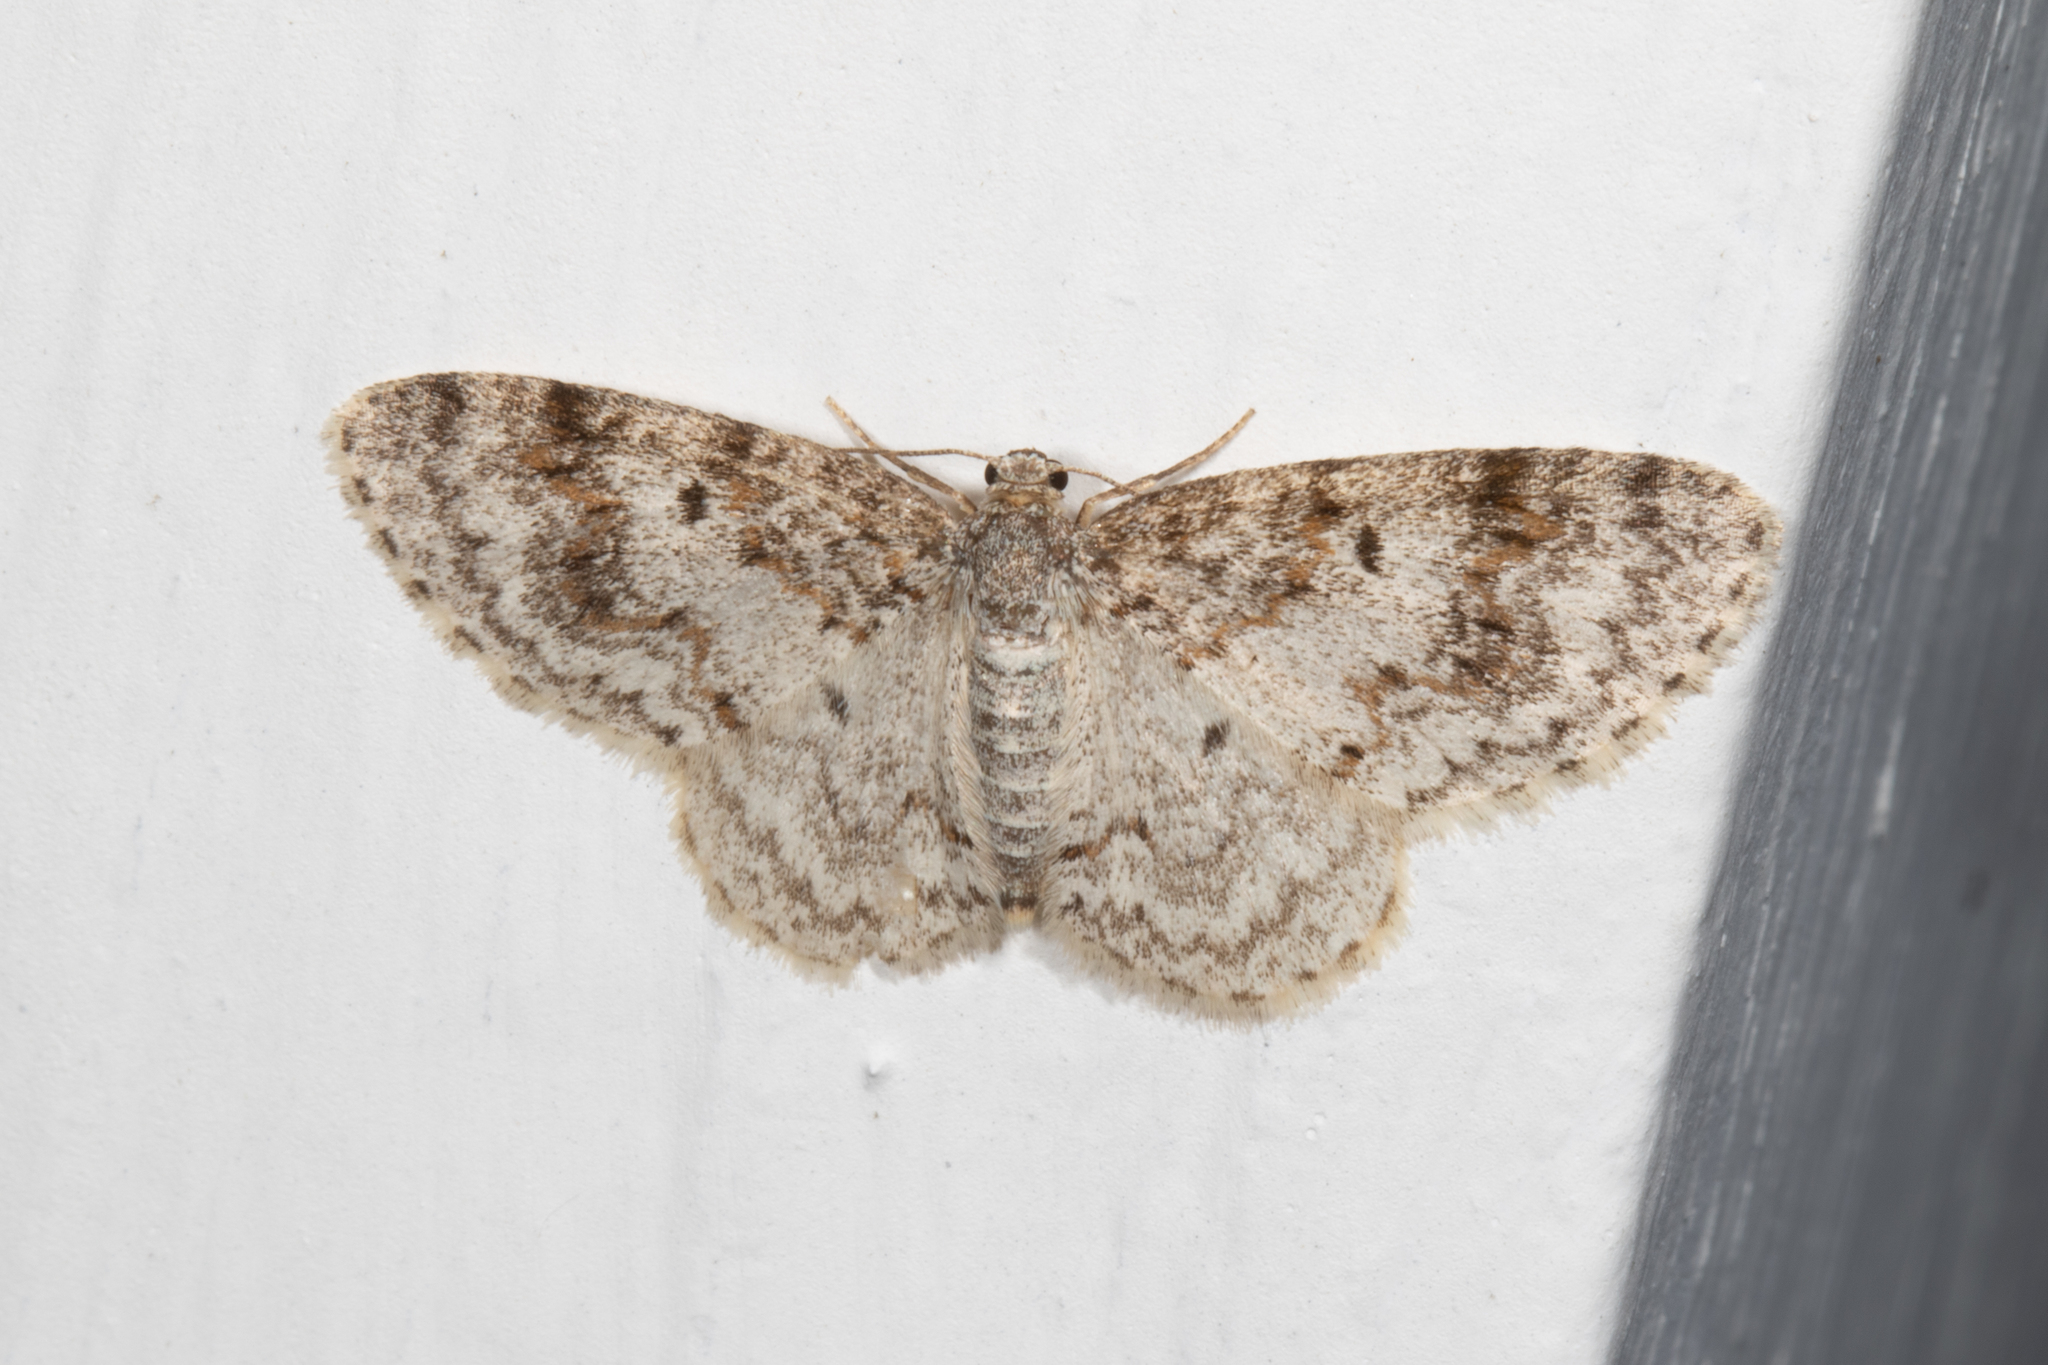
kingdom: Animalia
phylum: Arthropoda
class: Insecta
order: Lepidoptera
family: Geometridae
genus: Hydrelia
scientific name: Hydrelia inornata
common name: Unadorned carpet moth
